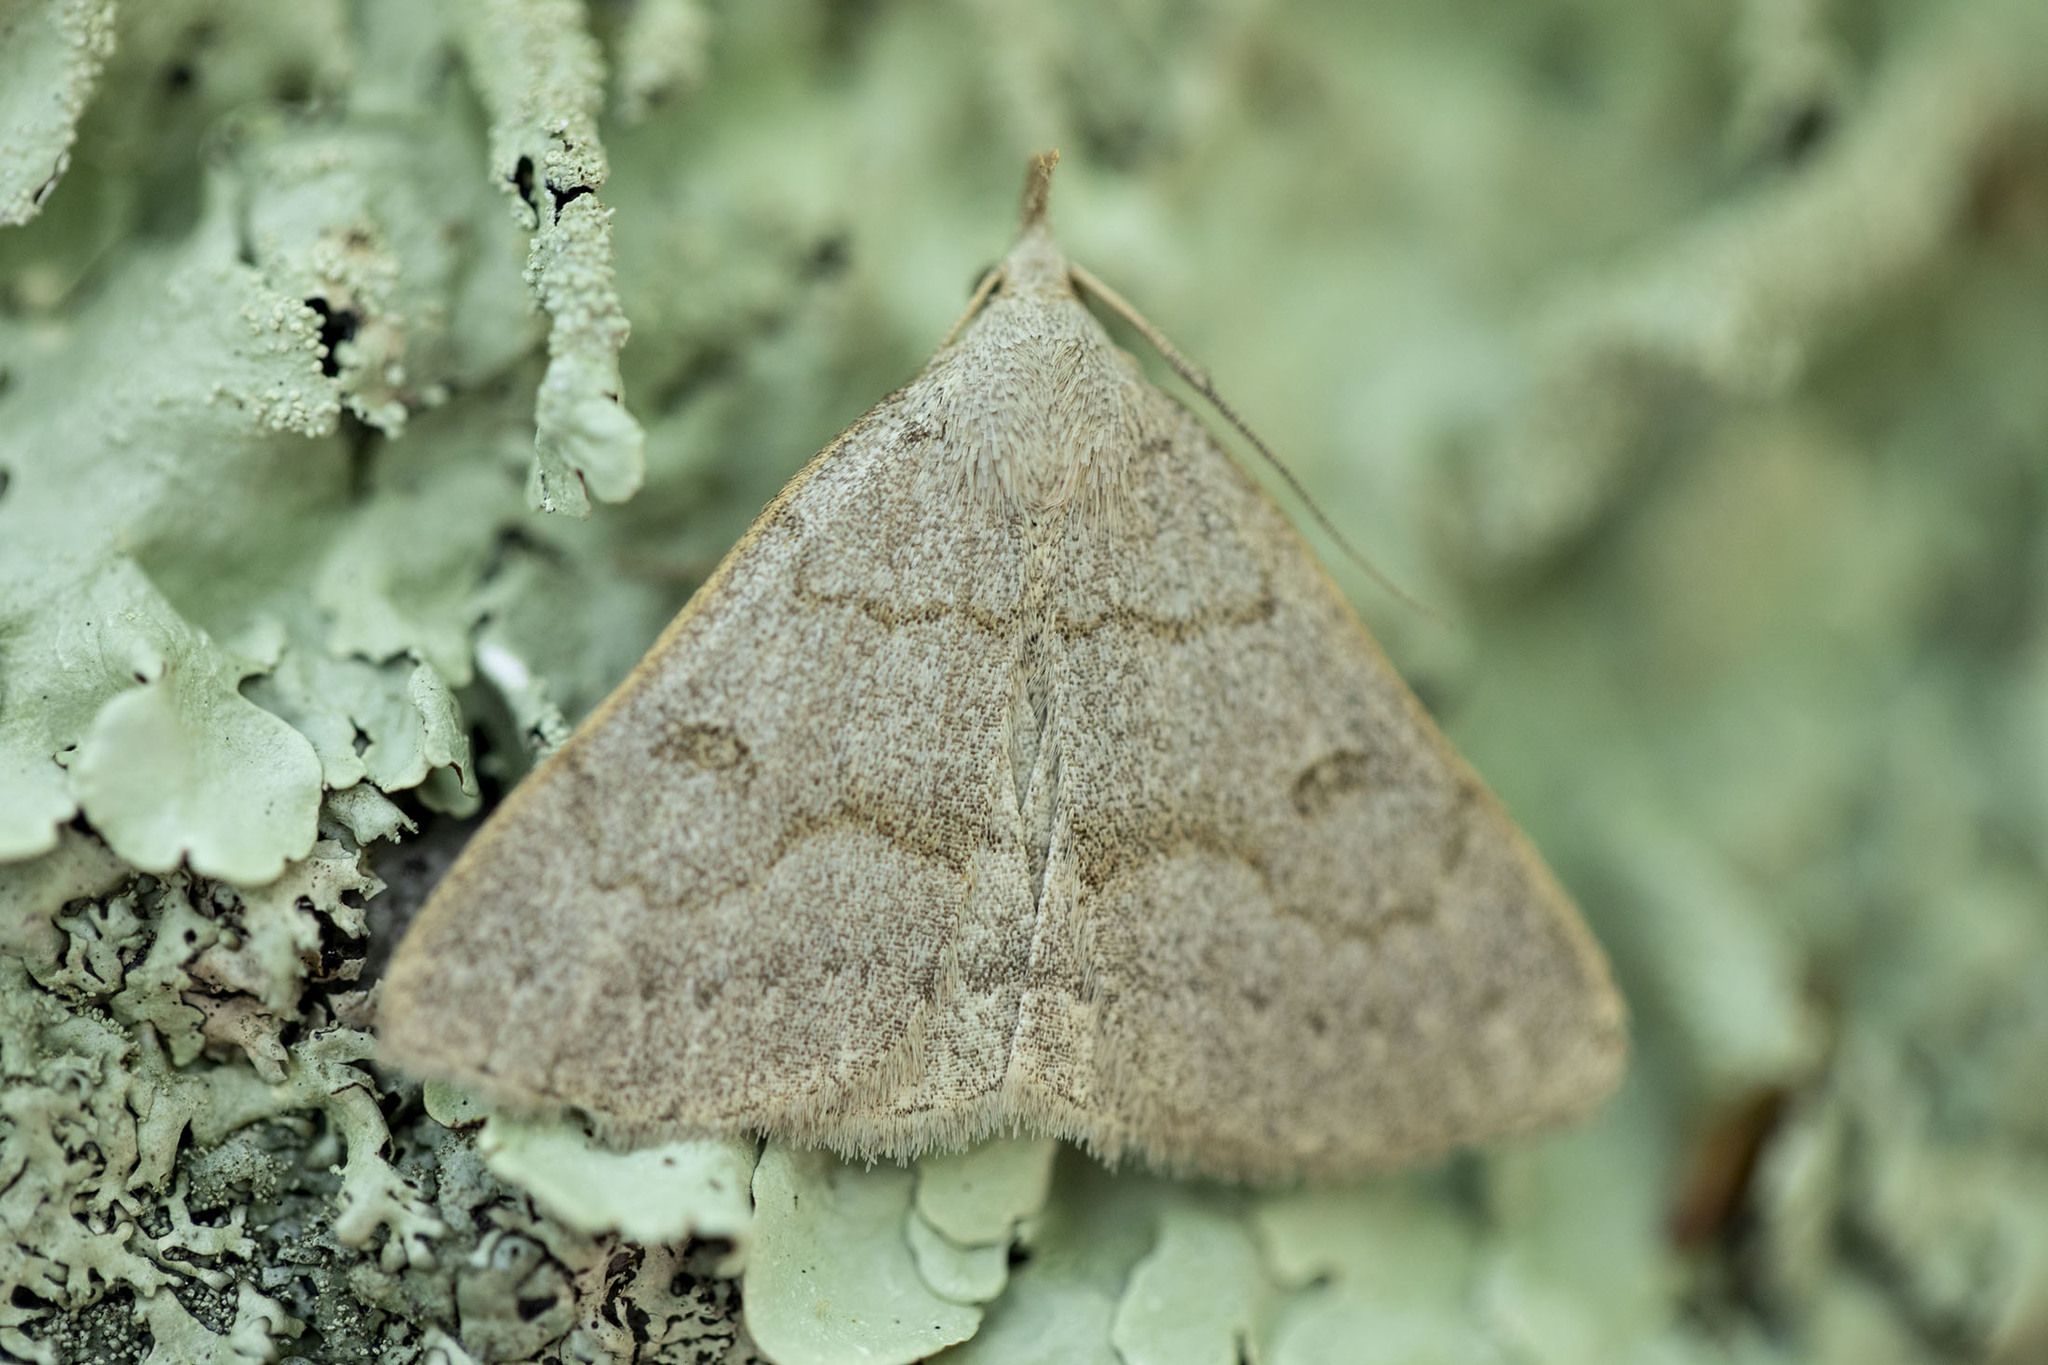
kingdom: Animalia
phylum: Arthropoda
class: Insecta
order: Lepidoptera
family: Erebidae
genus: Macrochilo
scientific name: Macrochilo morbidalis
